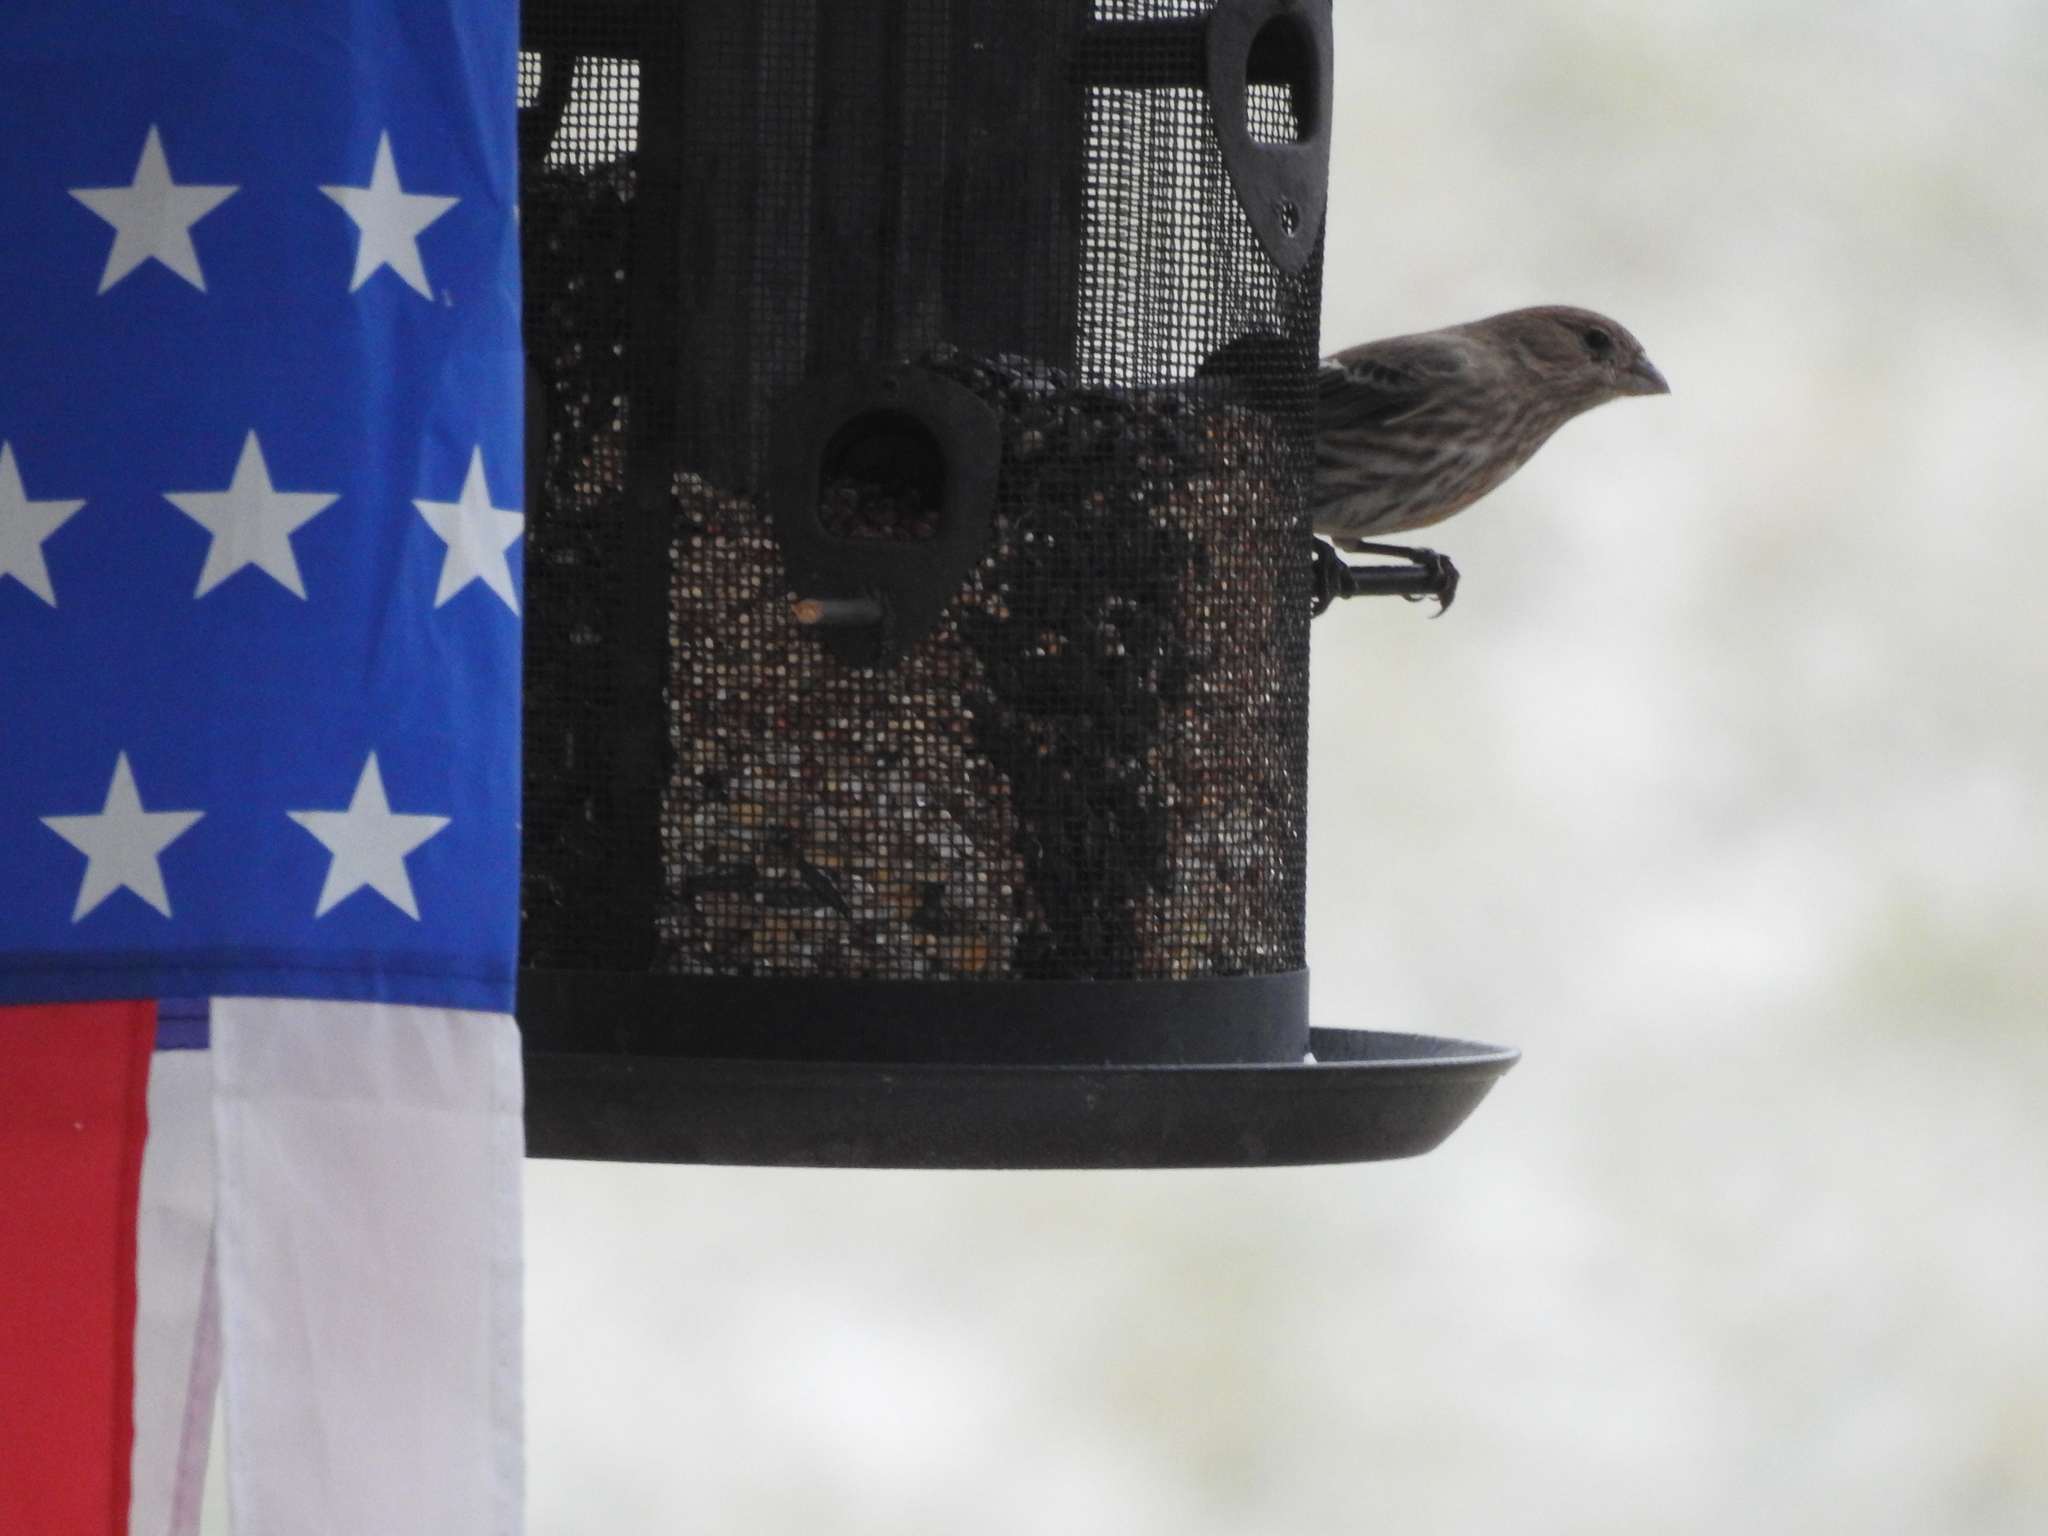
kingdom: Animalia
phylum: Chordata
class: Aves
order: Passeriformes
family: Fringillidae
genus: Haemorhous
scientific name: Haemorhous mexicanus
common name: House finch
